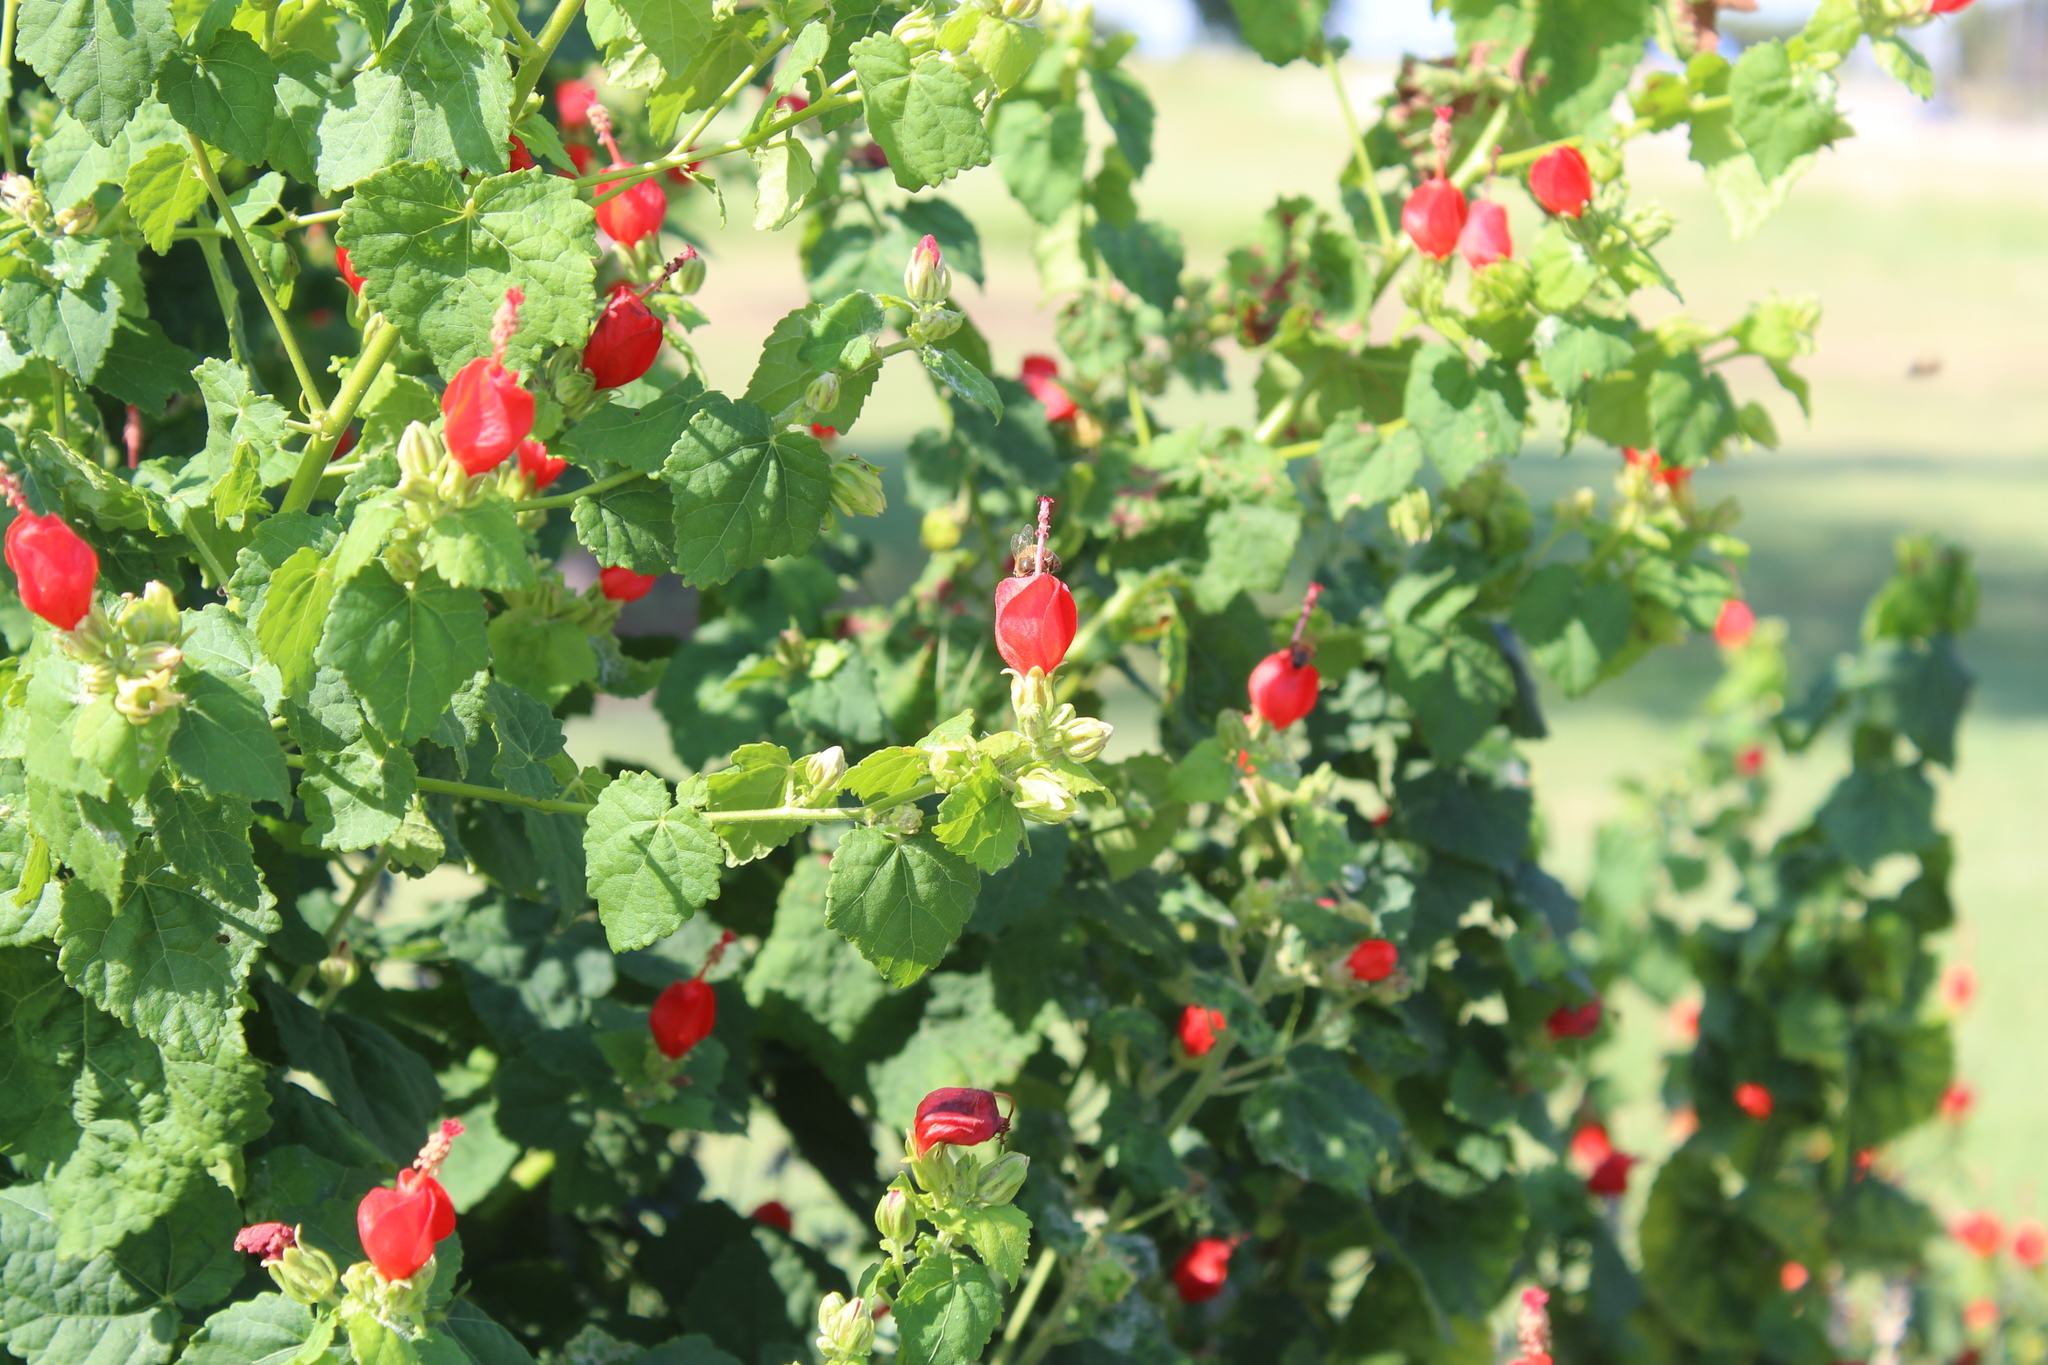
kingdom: Animalia
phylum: Arthropoda
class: Insecta
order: Hymenoptera
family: Apidae
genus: Apis
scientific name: Apis mellifera
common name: Honey bee
